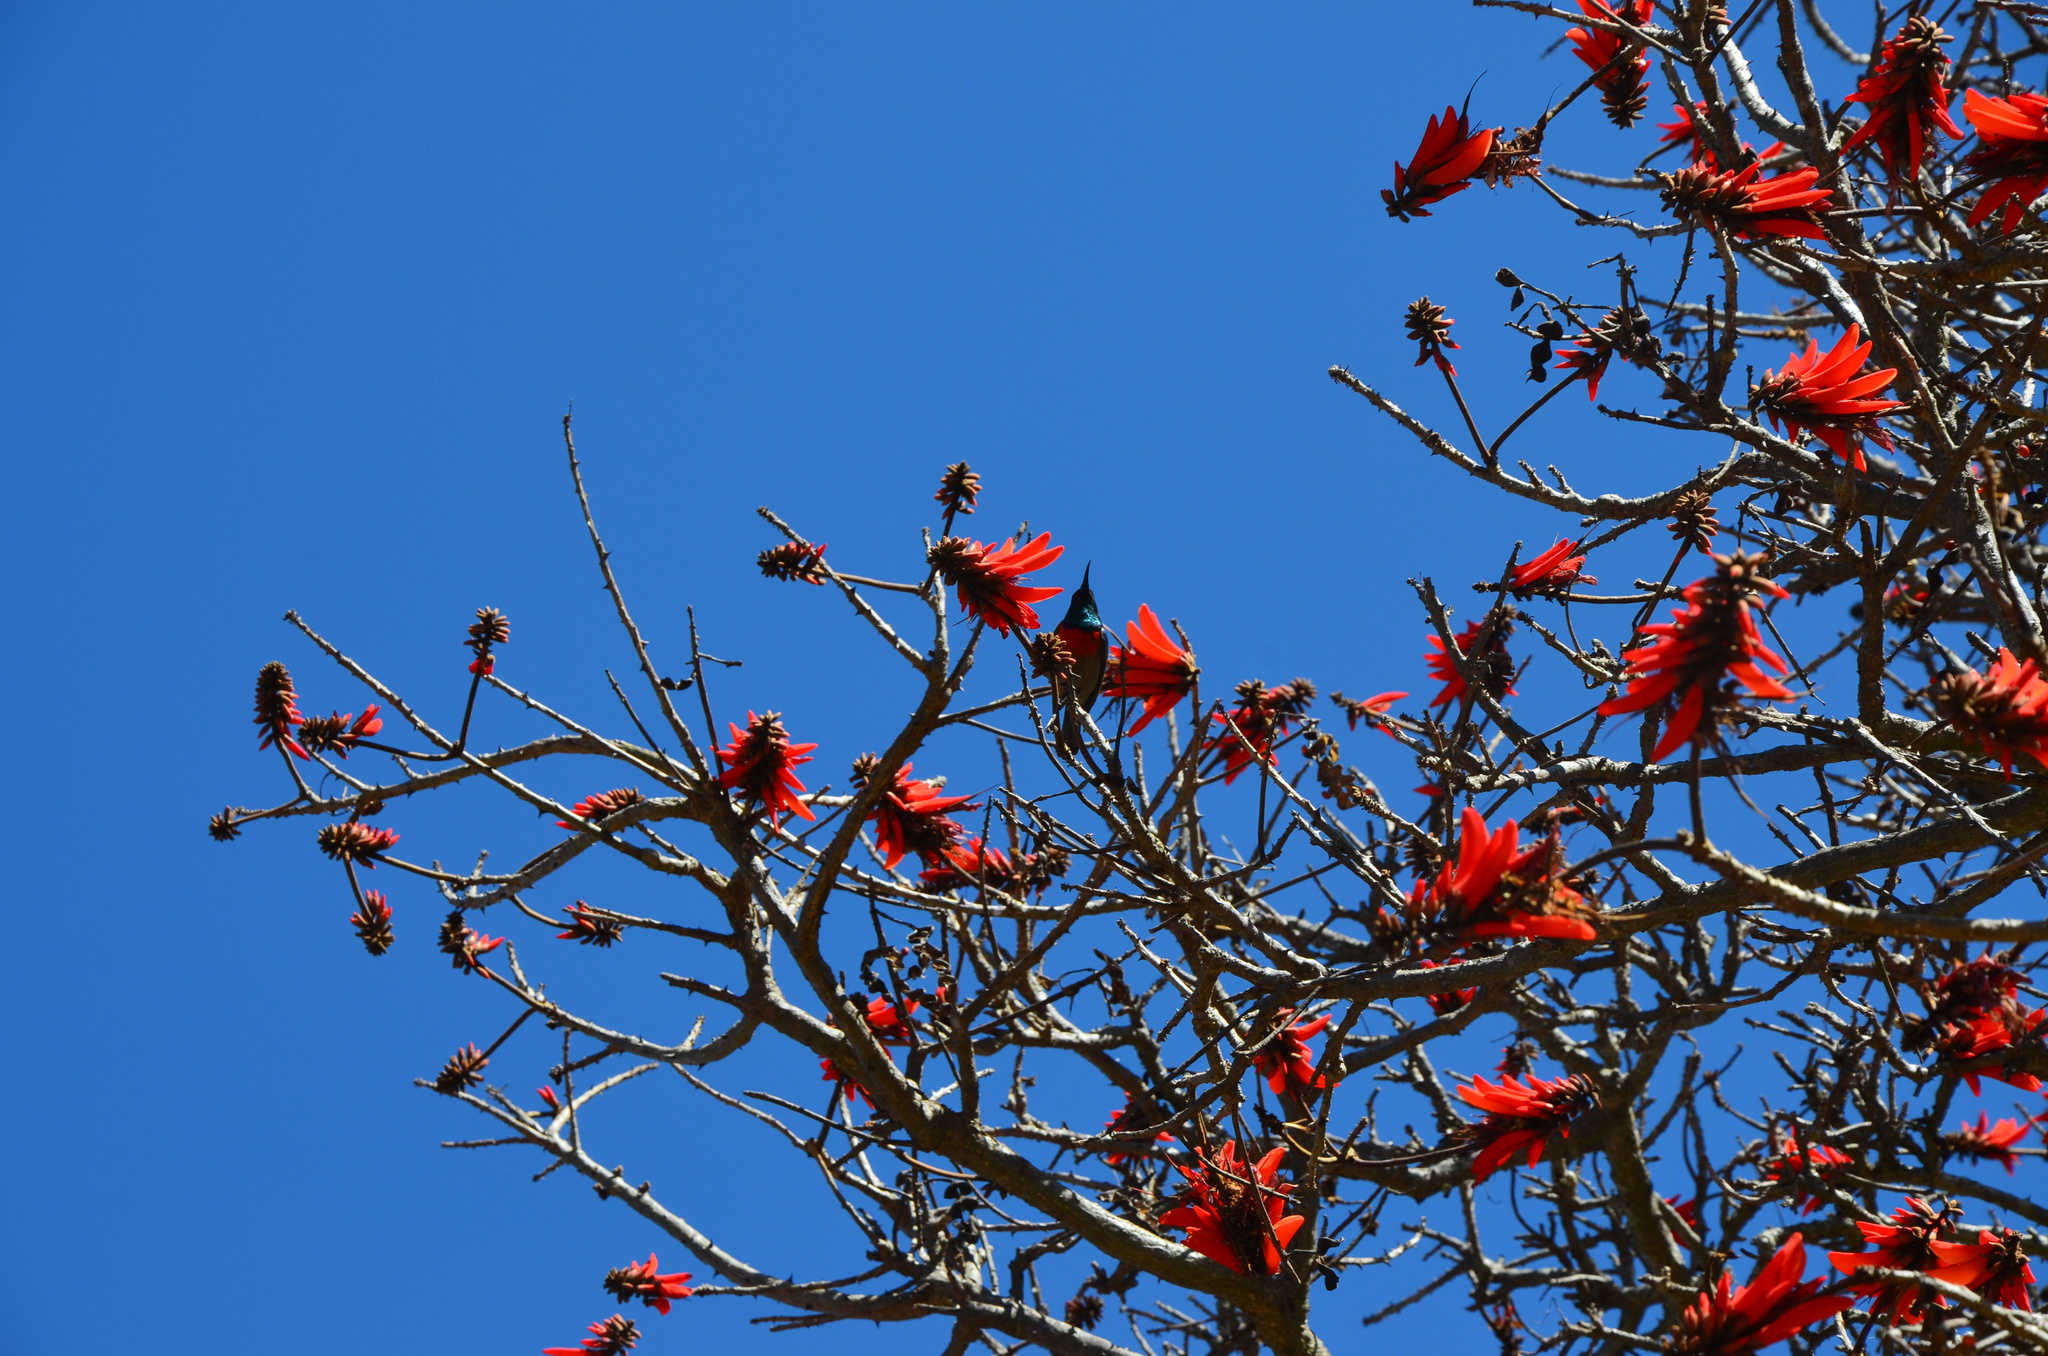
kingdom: Animalia
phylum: Chordata
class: Aves
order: Passeriformes
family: Nectariniidae
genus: Cinnyris
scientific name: Cinnyris afer
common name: Greater double-collared sunbird
